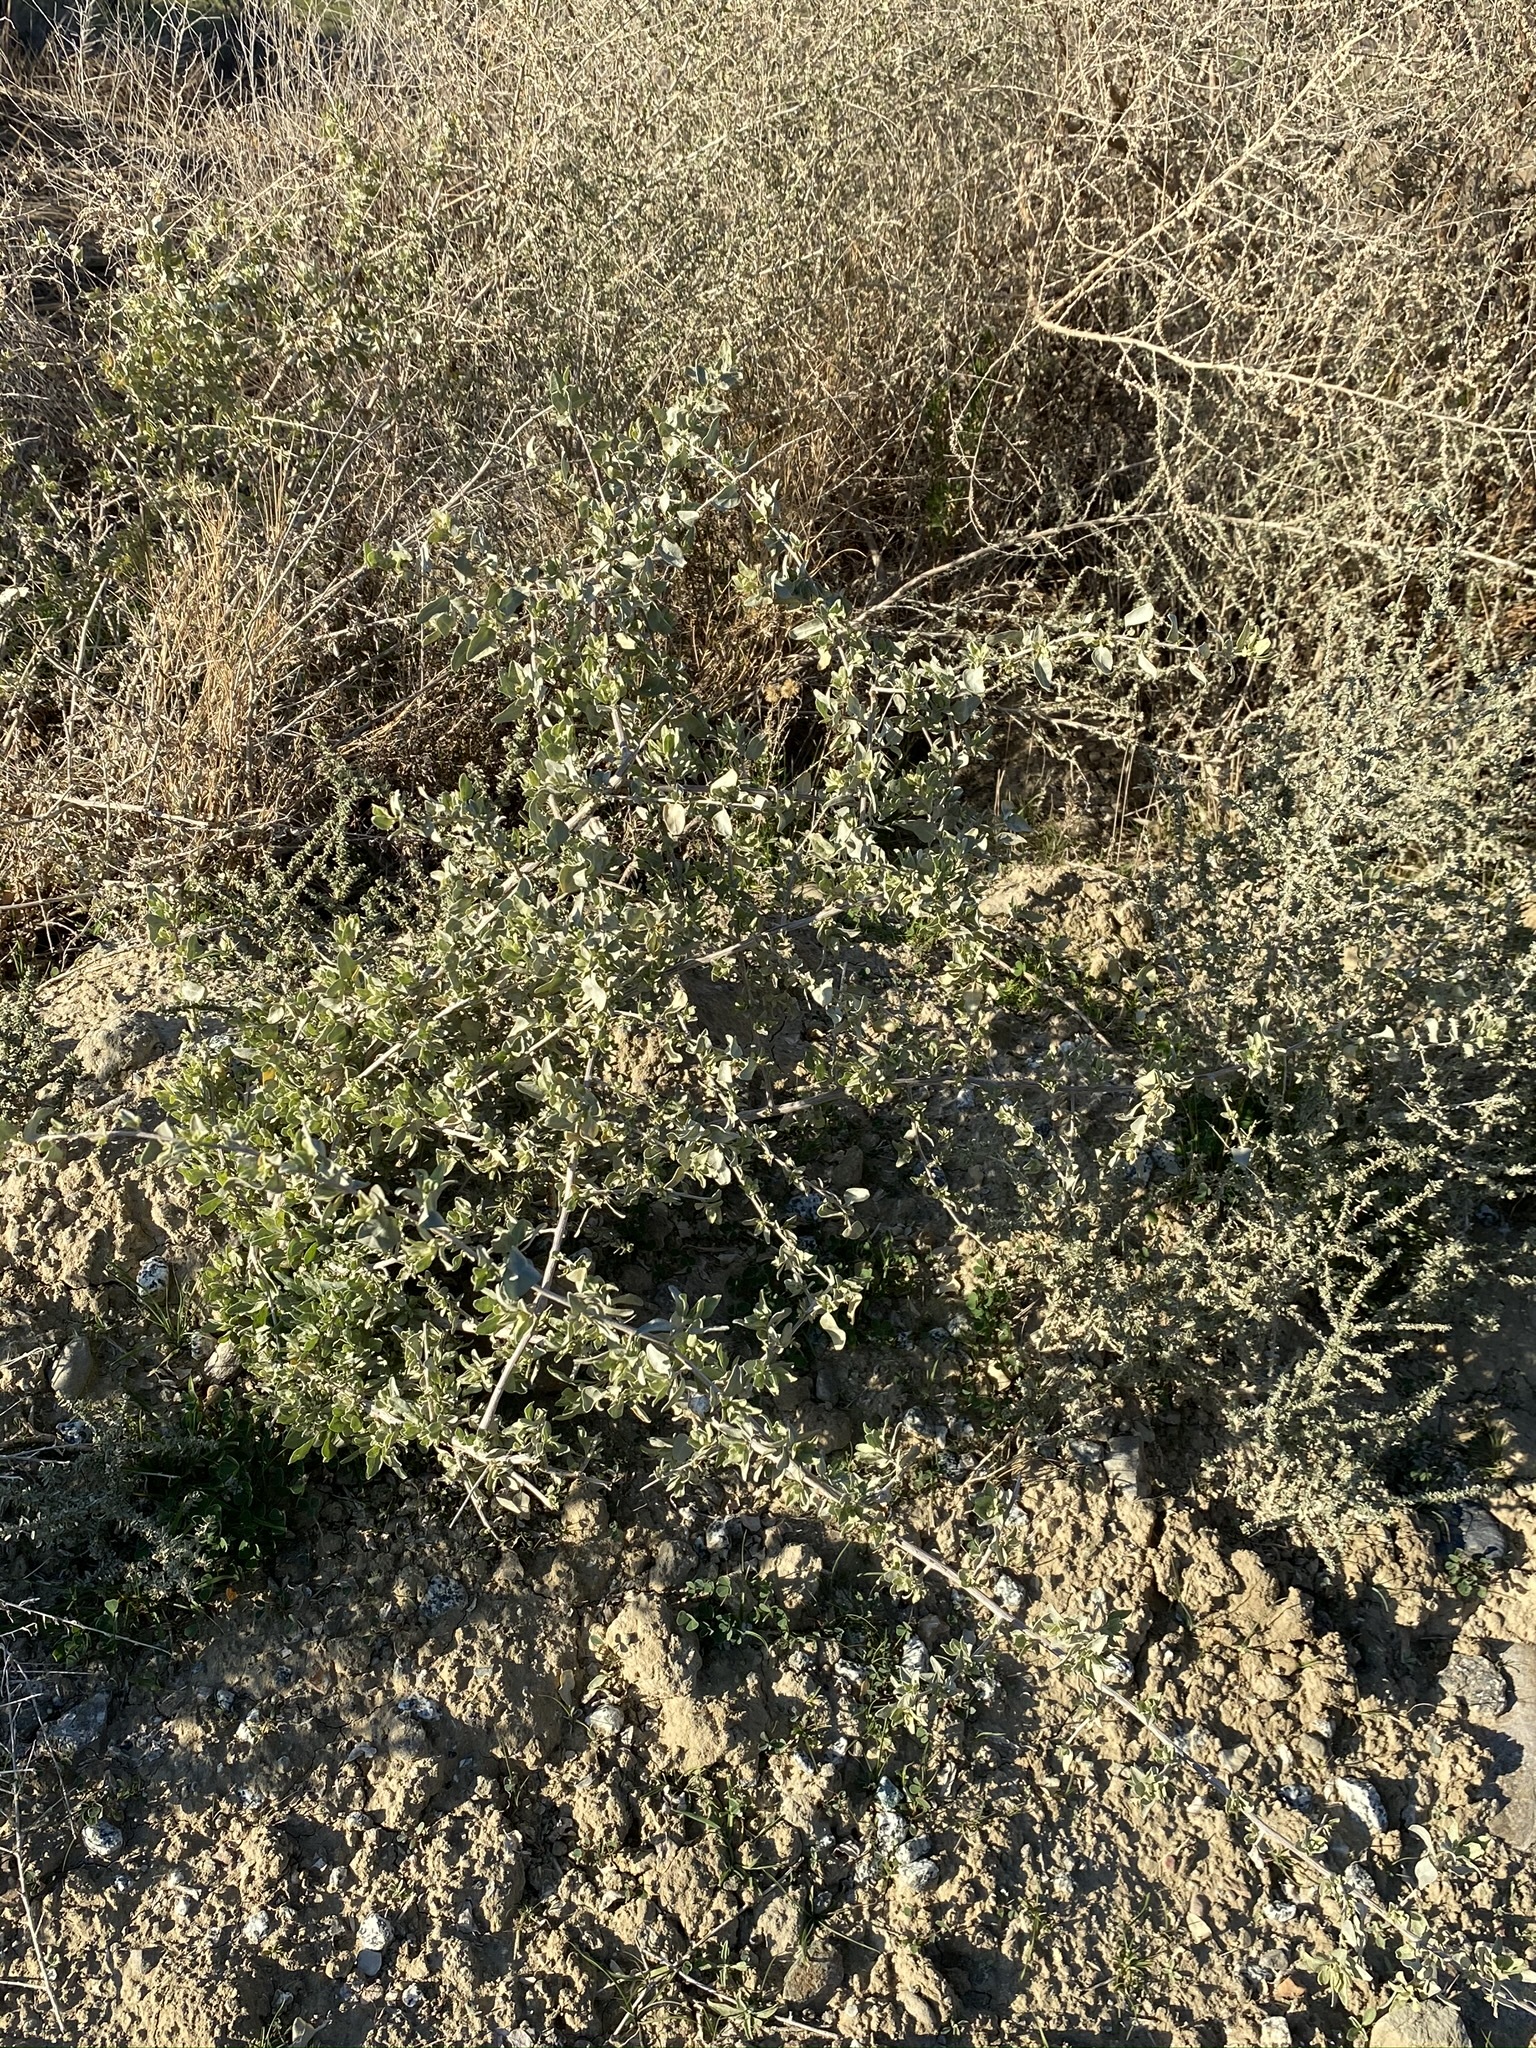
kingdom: Plantae
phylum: Tracheophyta
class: Magnoliopsida
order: Caryophyllales
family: Amaranthaceae
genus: Atriplex
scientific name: Atriplex lentiformis
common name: Big saltbush
